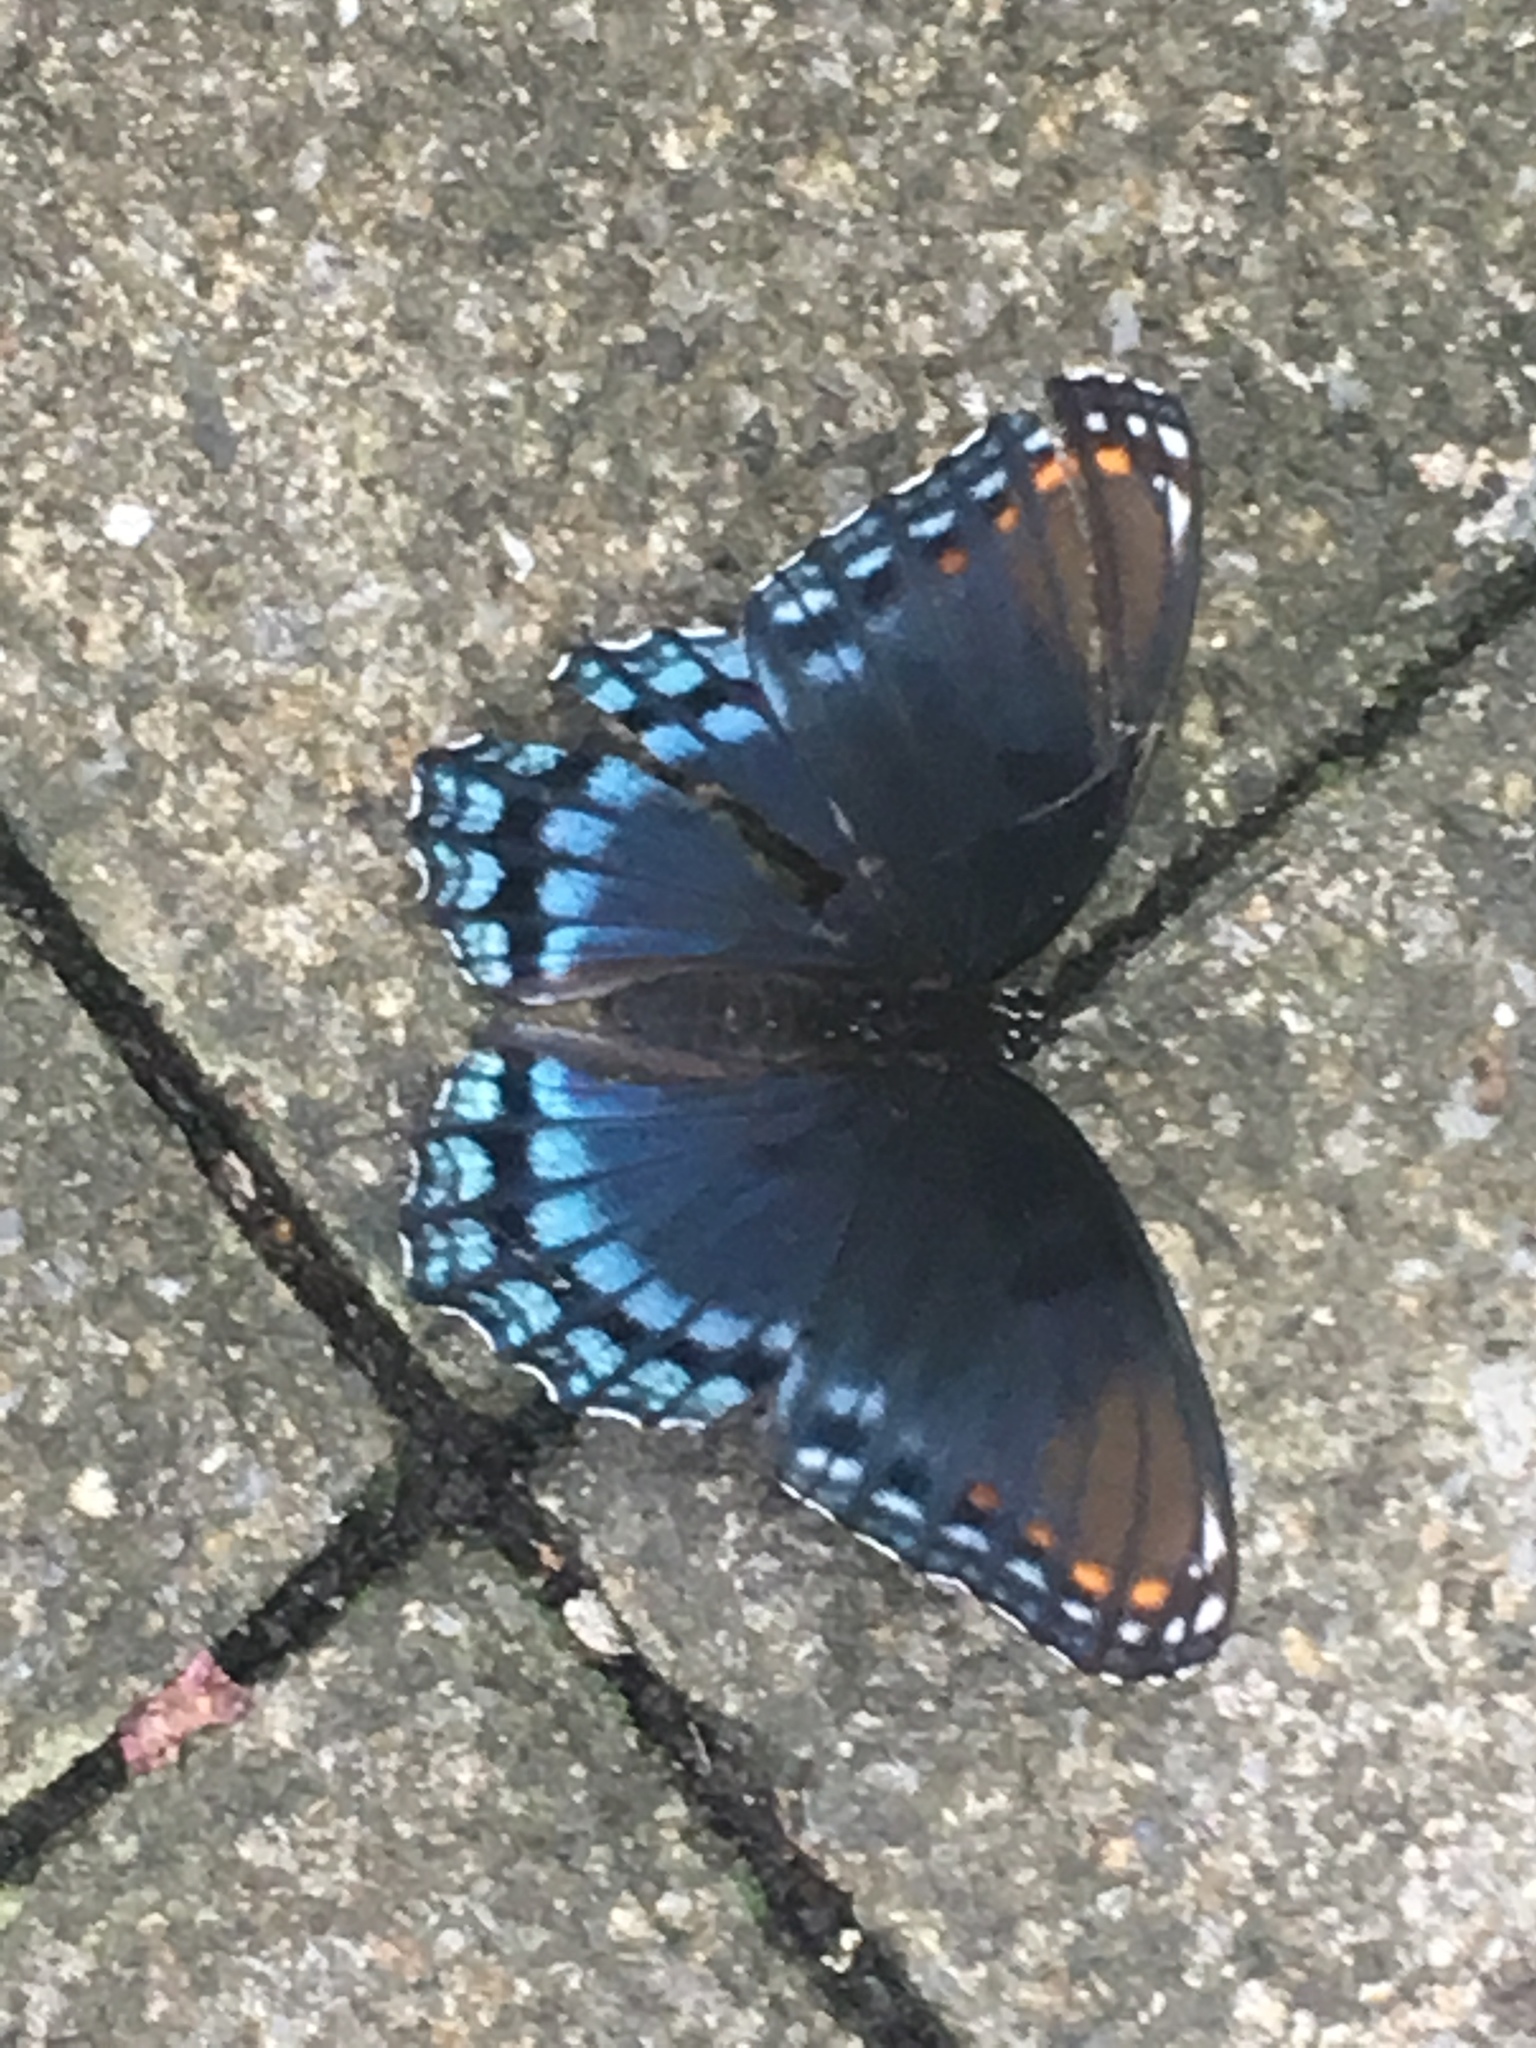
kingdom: Animalia
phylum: Arthropoda
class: Insecta
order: Lepidoptera
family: Nymphalidae
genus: Limenitis
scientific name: Limenitis arthemis
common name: Red-spotted admiral
